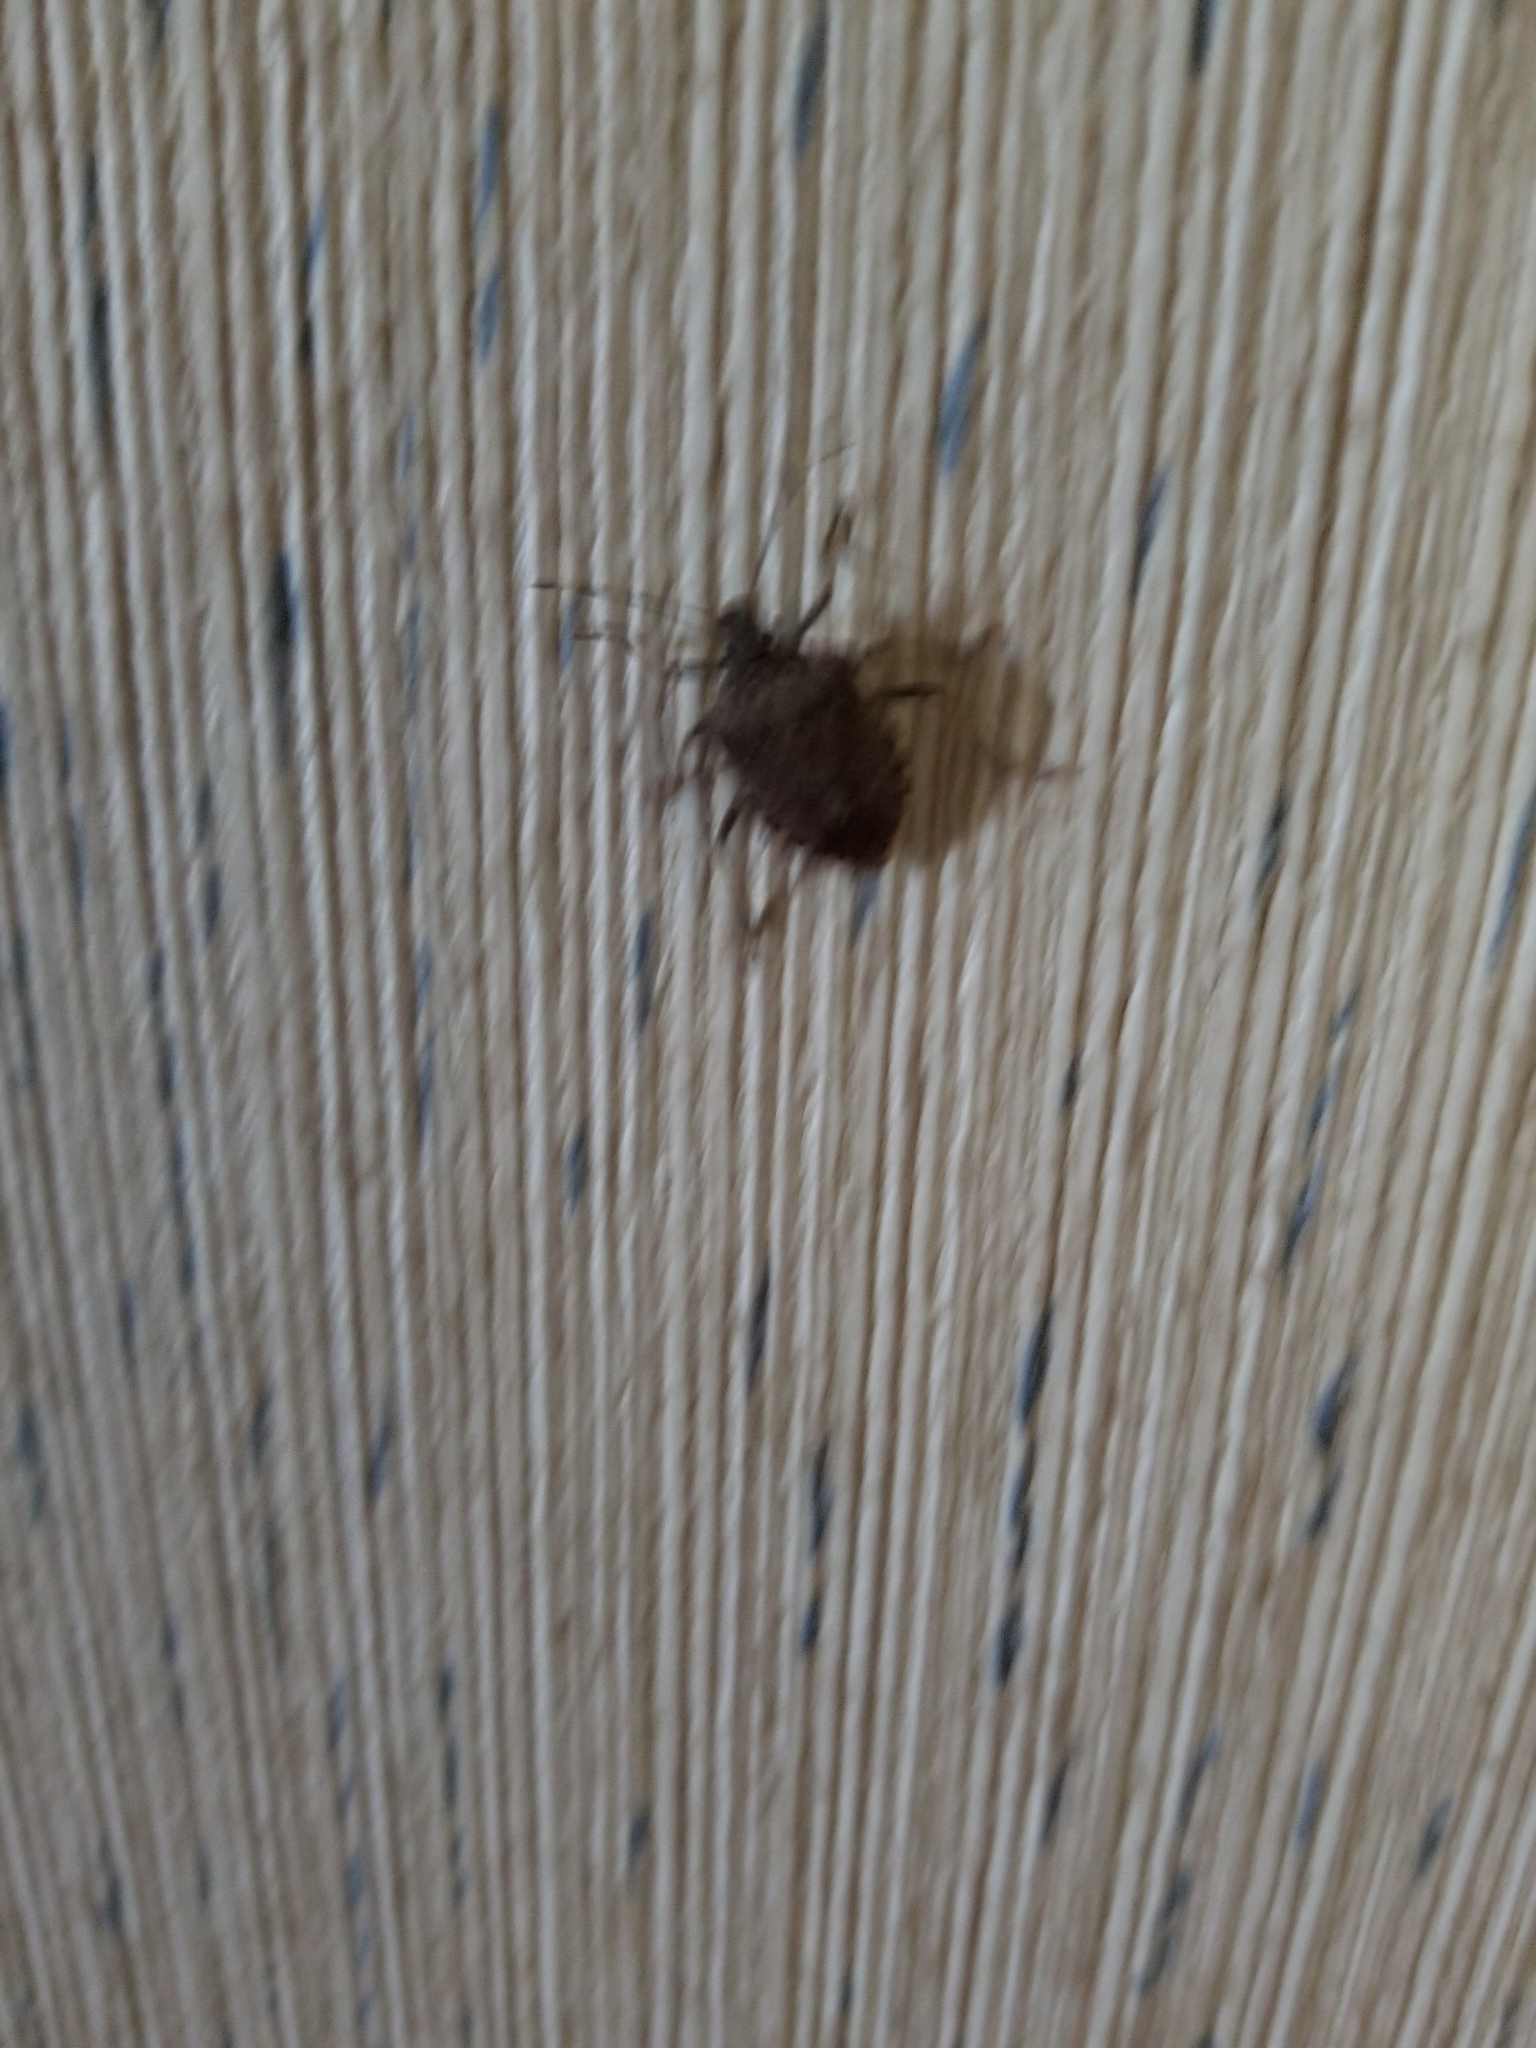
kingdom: Animalia
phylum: Arthropoda
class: Insecta
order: Hemiptera
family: Pentatomidae
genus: Halyomorpha
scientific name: Halyomorpha halys
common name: Brown marmorated stink bug
